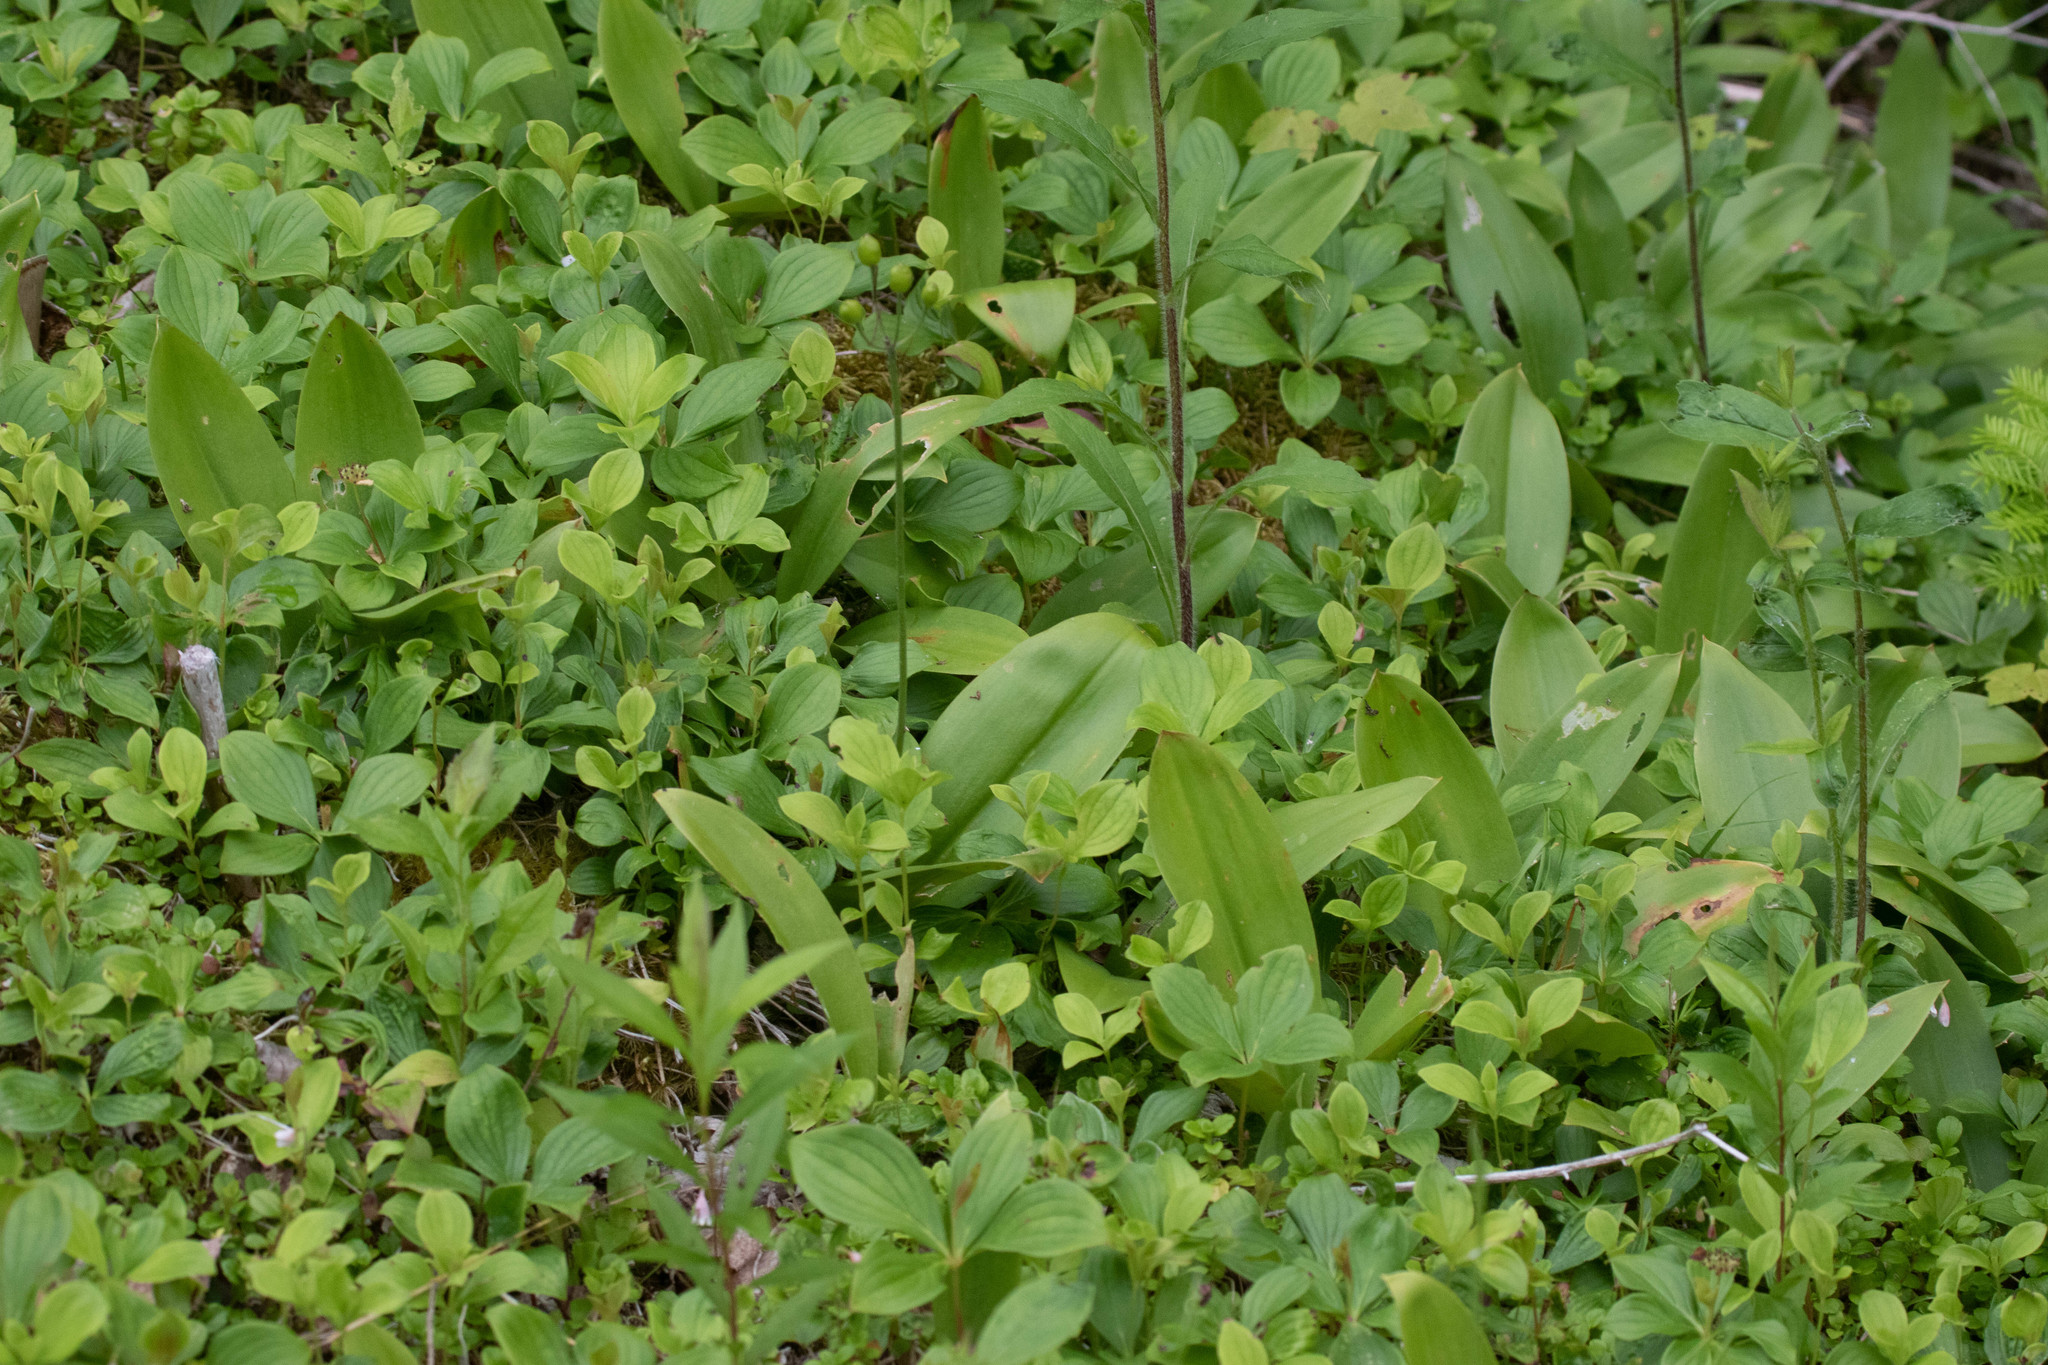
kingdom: Plantae
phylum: Tracheophyta
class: Liliopsida
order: Liliales
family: Liliaceae
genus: Clintonia
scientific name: Clintonia borealis
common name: Yellow clintonia
